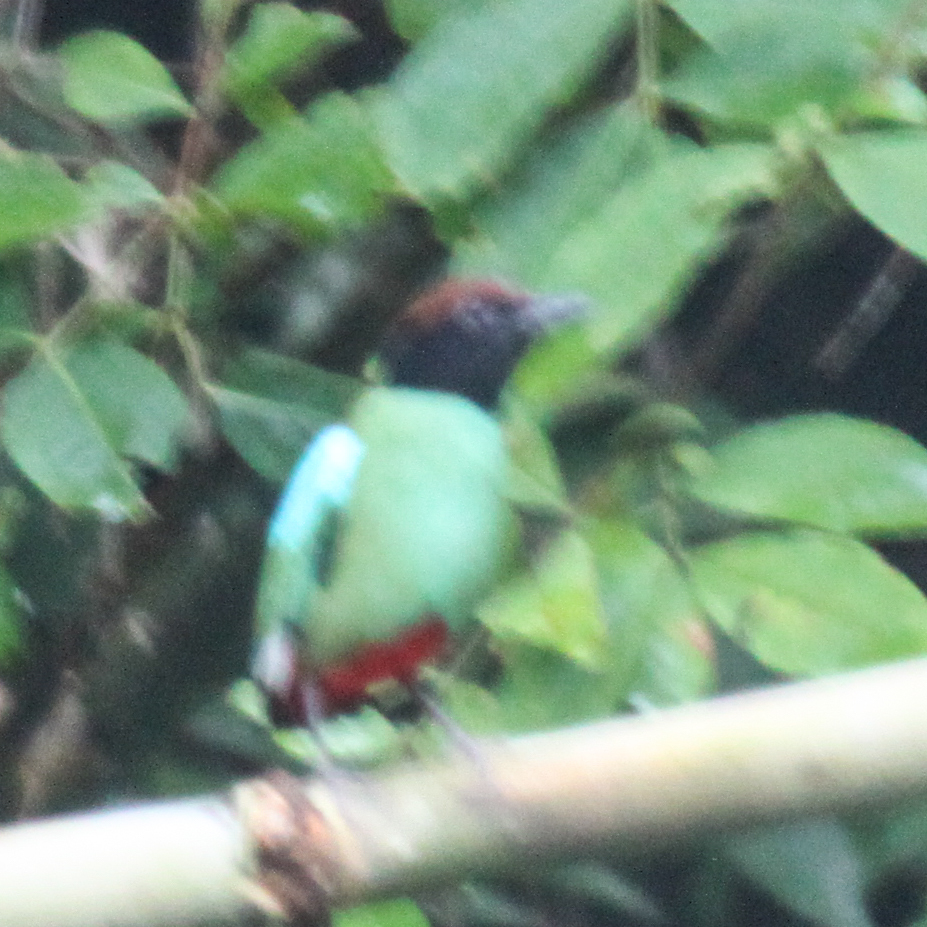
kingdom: Animalia
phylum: Chordata
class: Aves
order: Passeriformes
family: Pittidae
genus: Pitta
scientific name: Pitta sordida
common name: Hooded pitta
